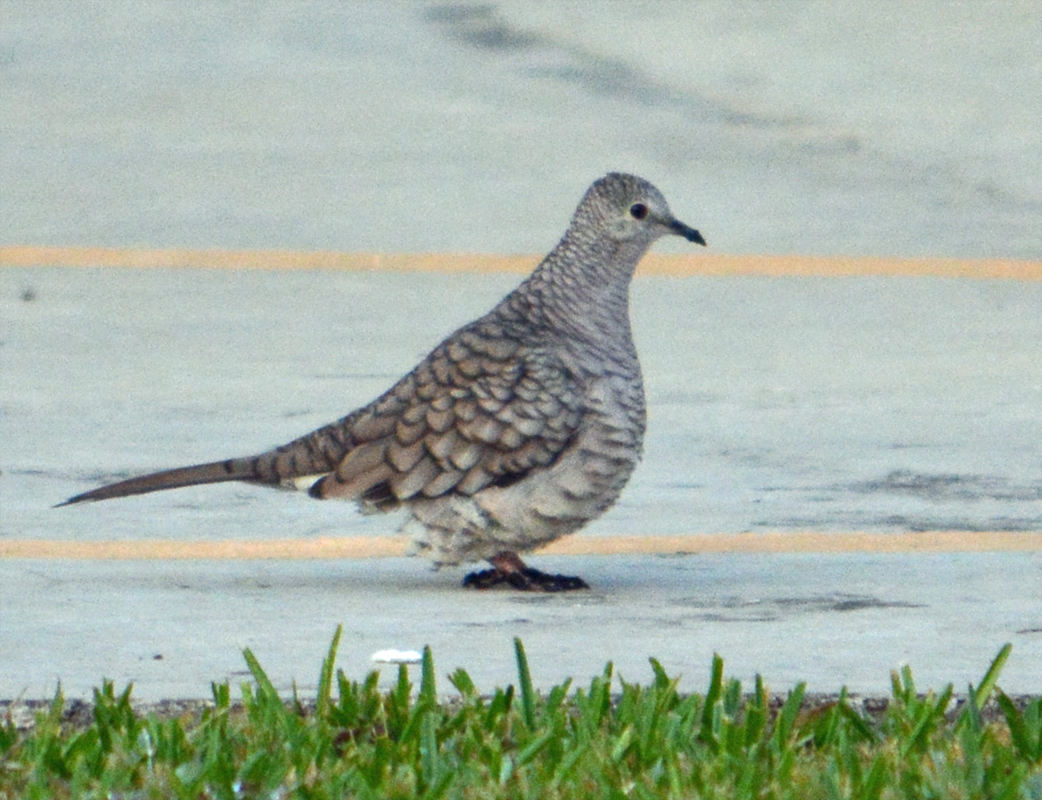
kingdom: Animalia
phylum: Chordata
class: Aves
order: Columbiformes
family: Columbidae
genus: Columbina
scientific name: Columbina inca
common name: Inca dove
